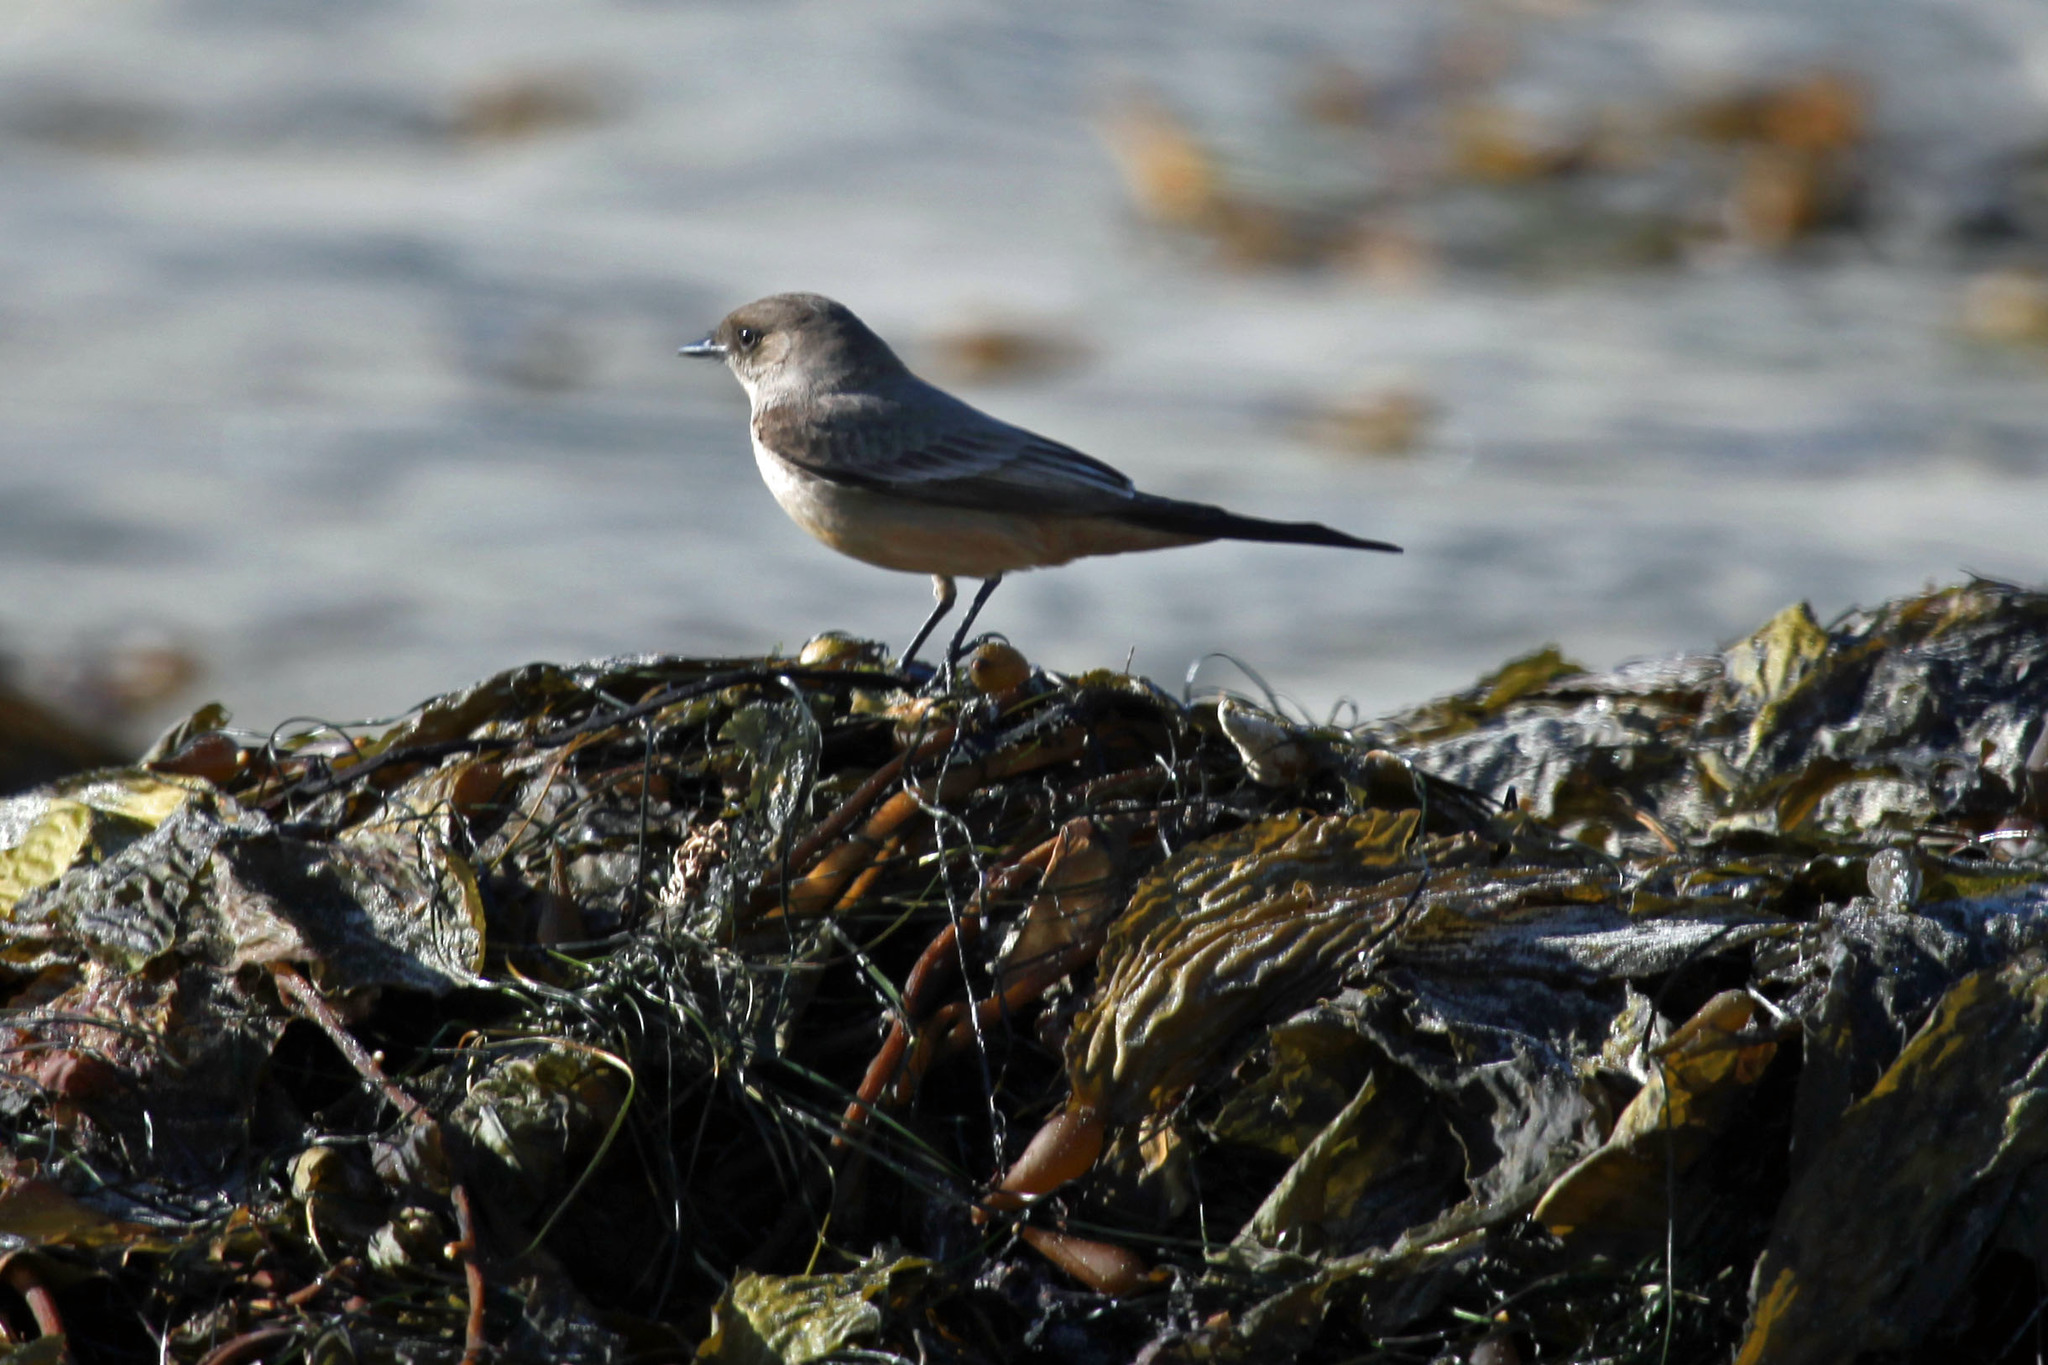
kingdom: Animalia
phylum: Chordata
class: Aves
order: Passeriformes
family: Tyrannidae
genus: Sayornis
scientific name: Sayornis saya
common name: Say's phoebe
